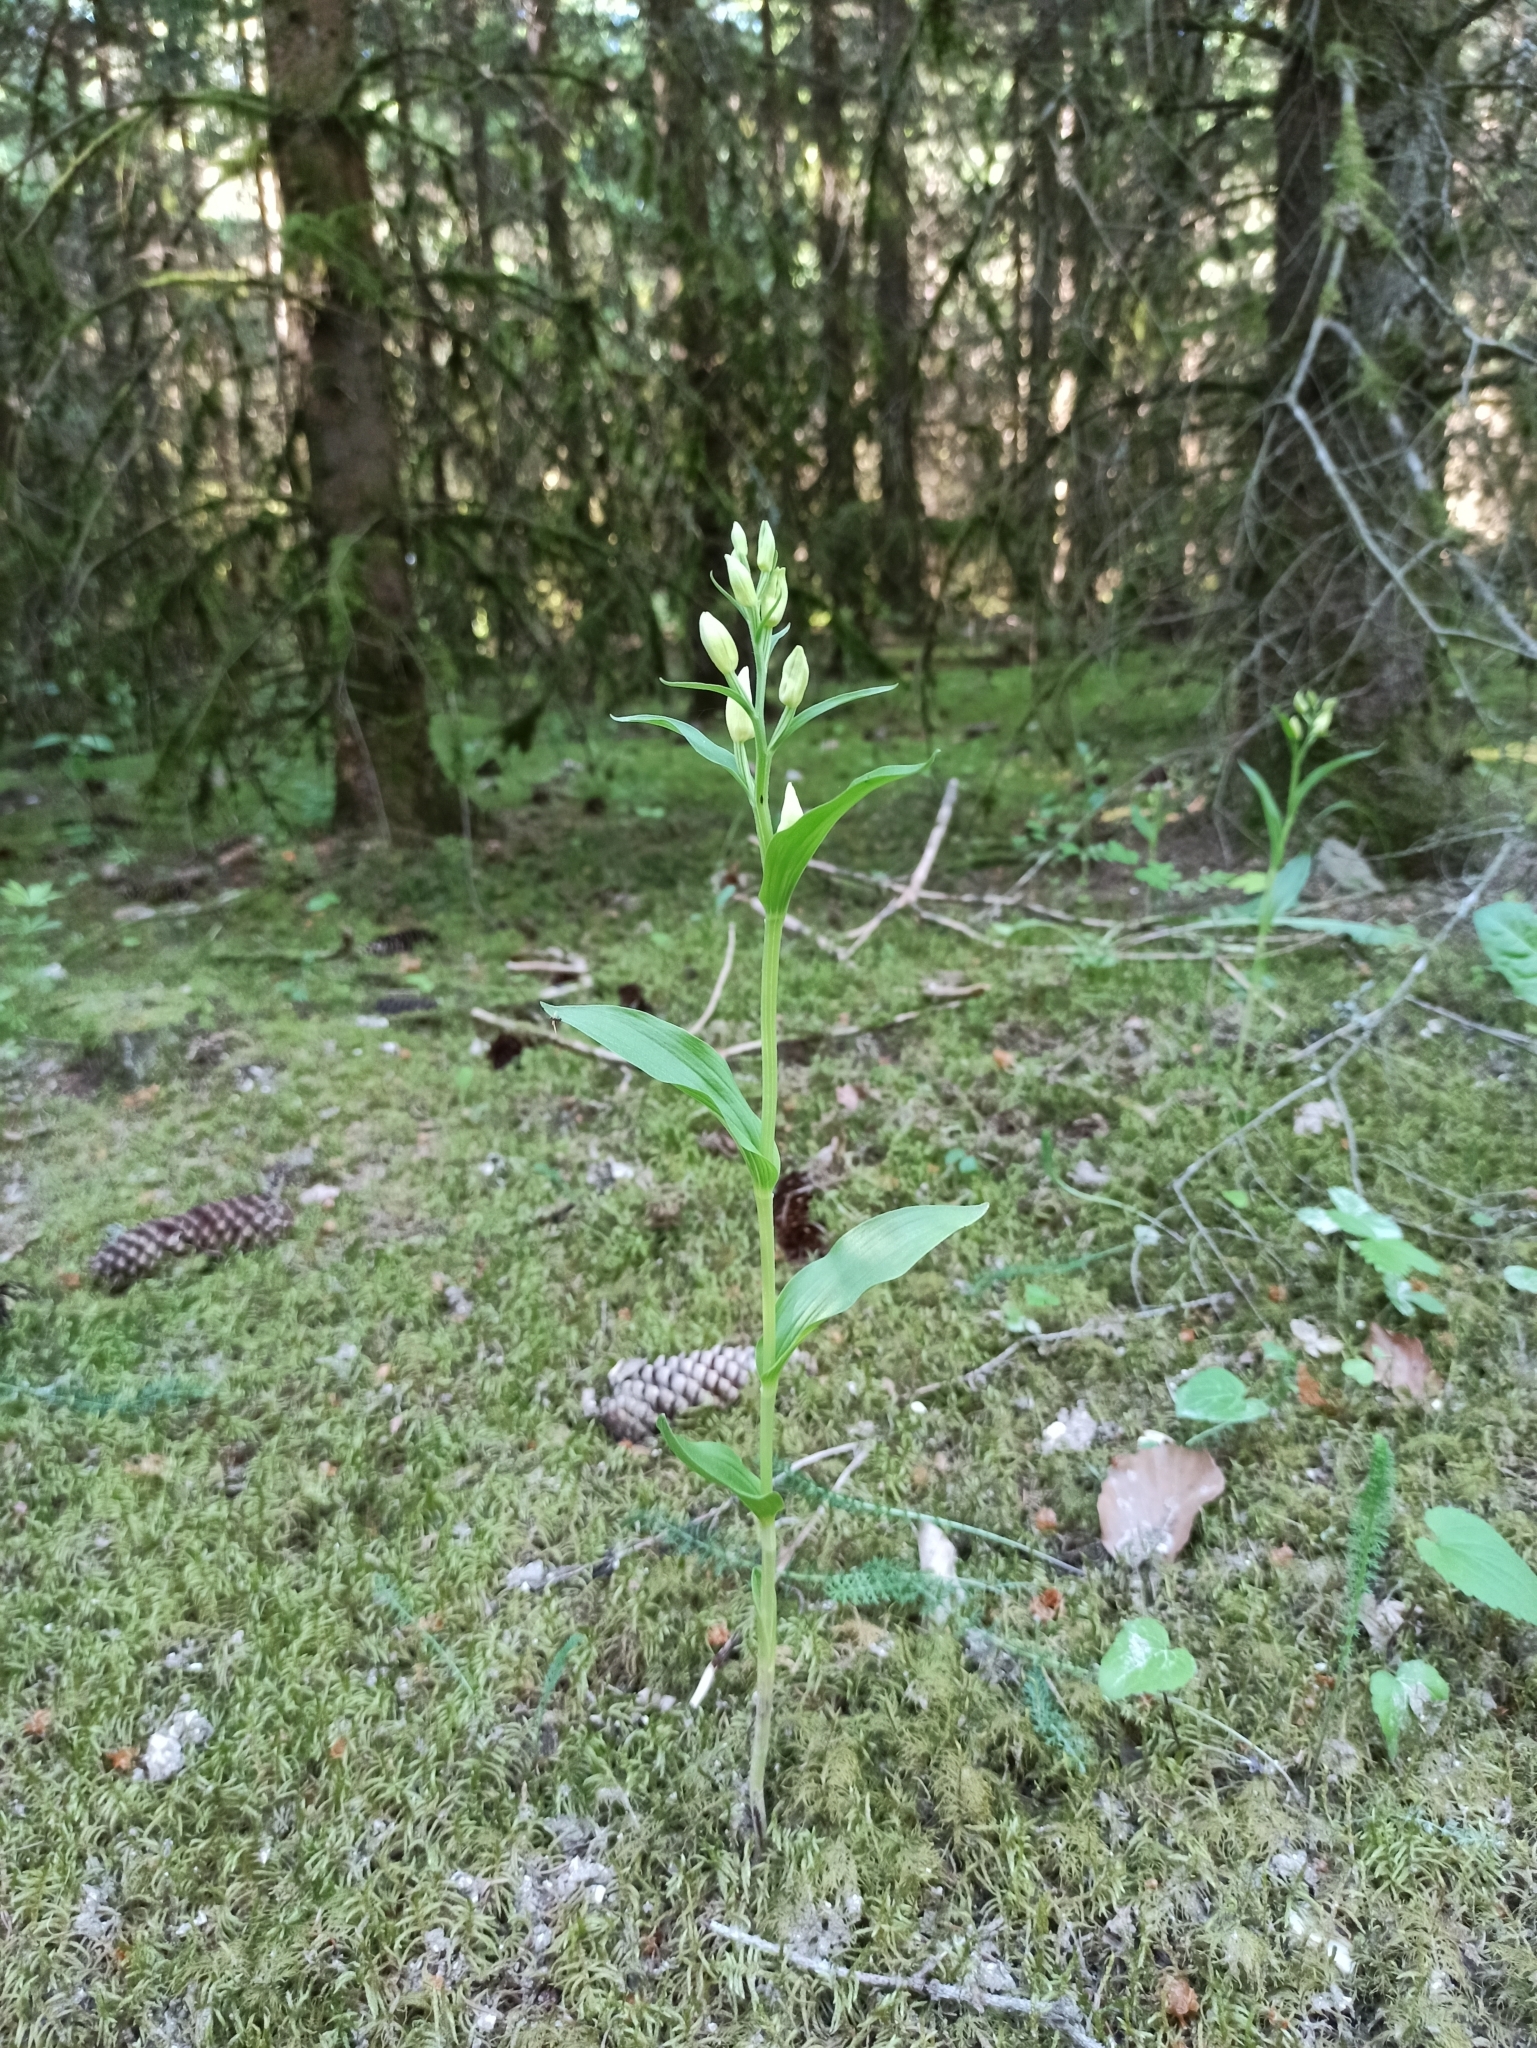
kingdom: Plantae
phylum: Tracheophyta
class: Liliopsida
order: Asparagales
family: Orchidaceae
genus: Cephalanthera
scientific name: Cephalanthera damasonium
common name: White helleborine
